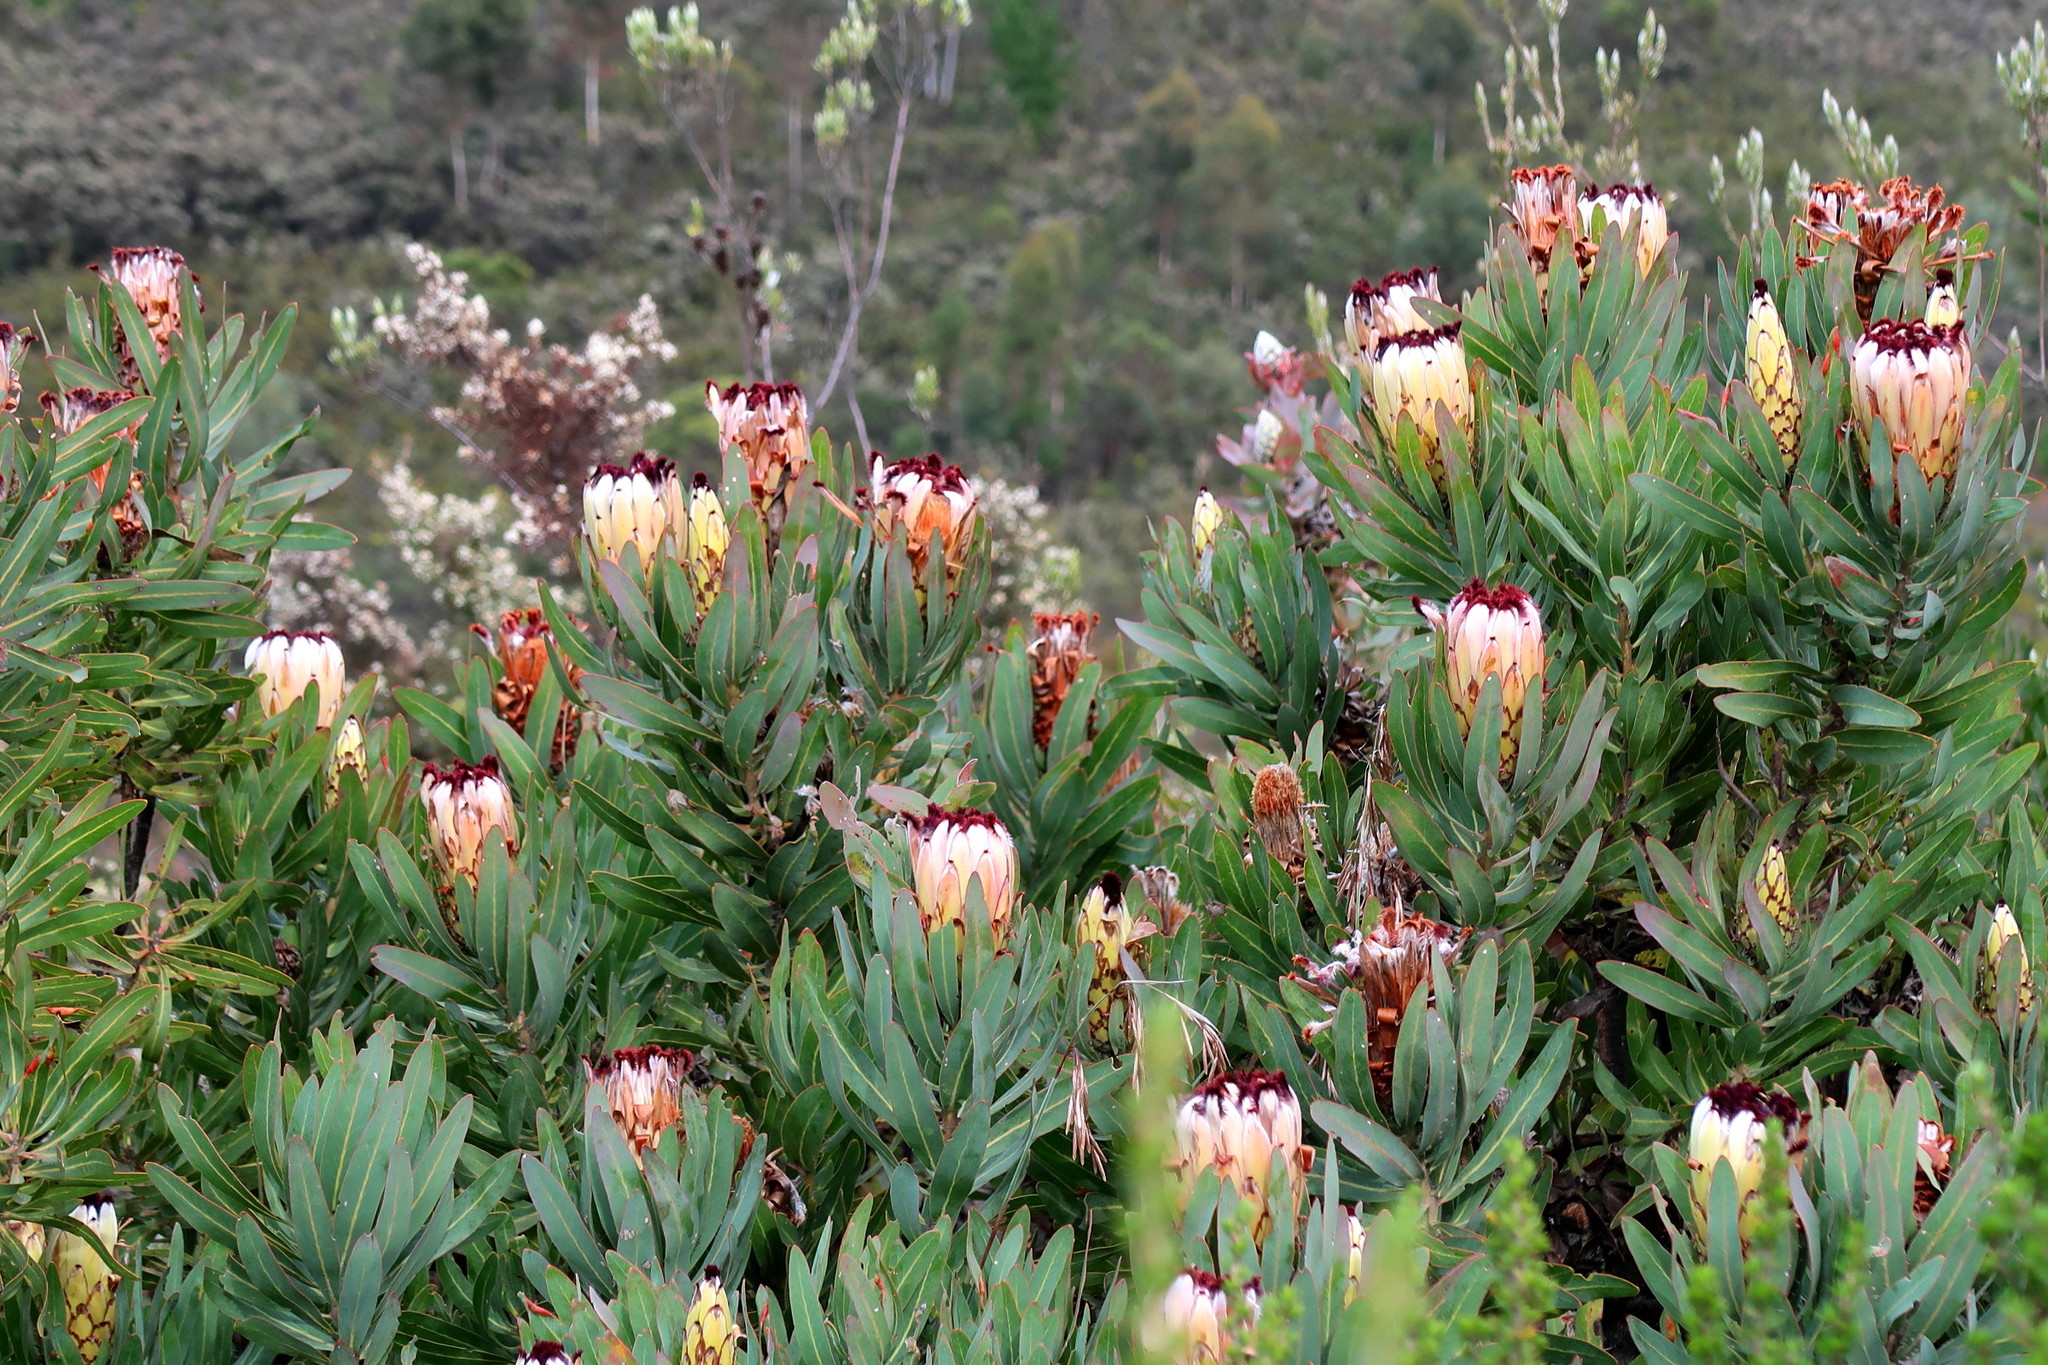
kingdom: Plantae
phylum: Tracheophyta
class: Magnoliopsida
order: Proteales
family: Proteaceae
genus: Protea
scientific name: Protea neriifolia
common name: Blue sugarbush
